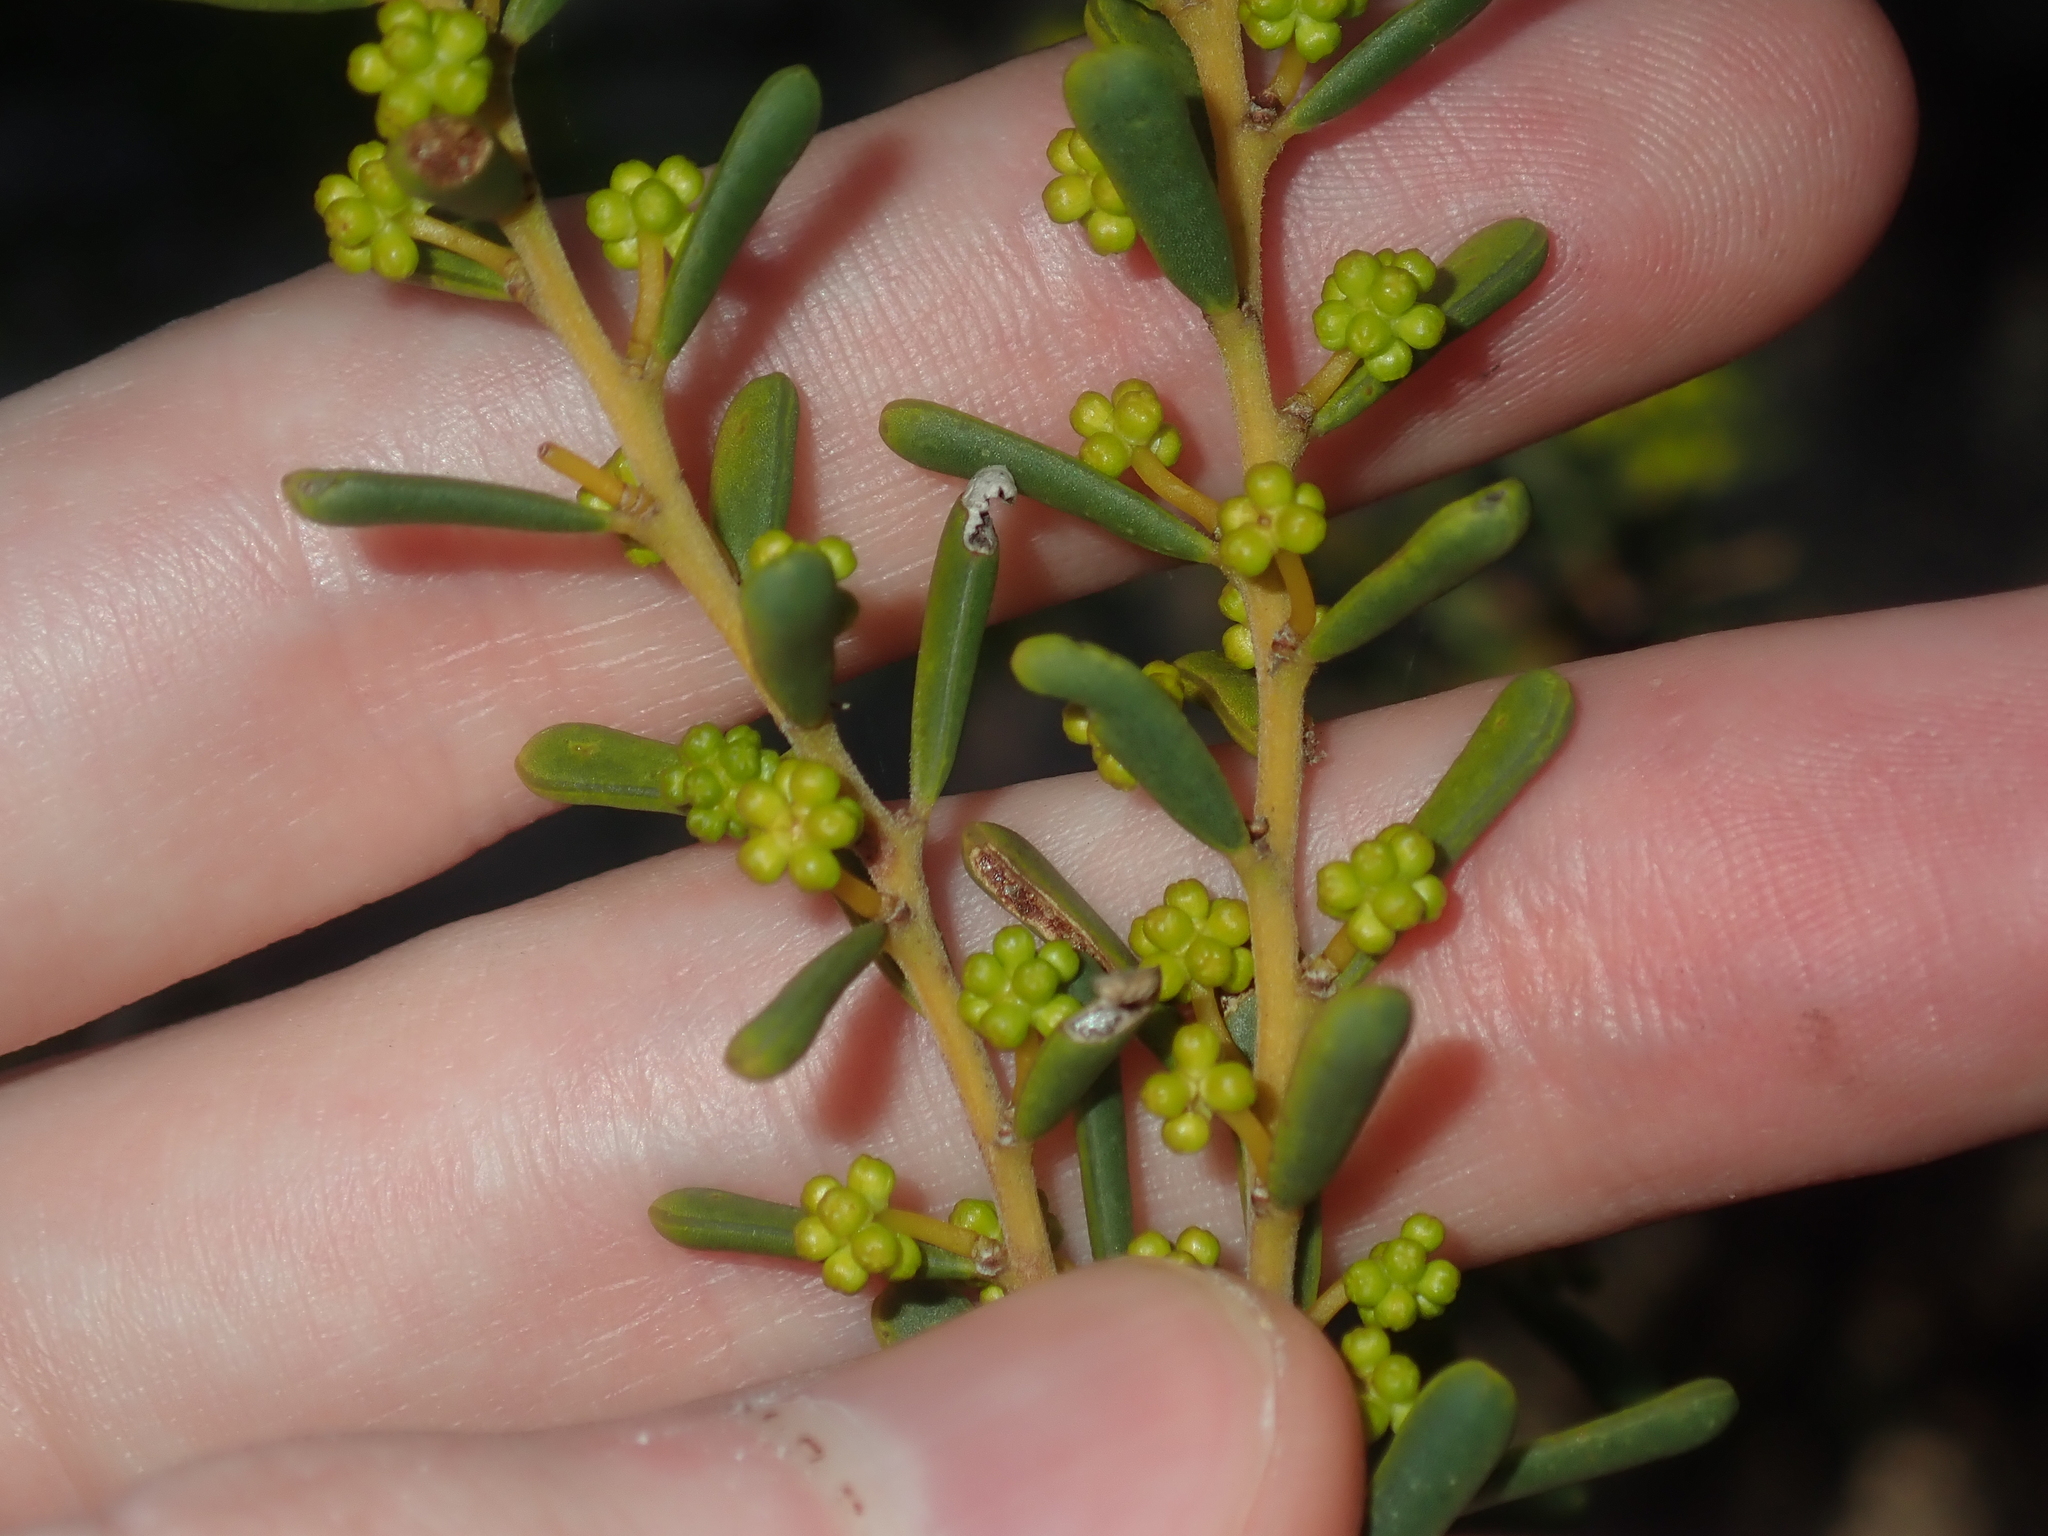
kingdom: Plantae
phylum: Tracheophyta
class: Magnoliopsida
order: Fabales
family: Fabaceae
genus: Acacia
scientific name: Acacia spathulifolia
